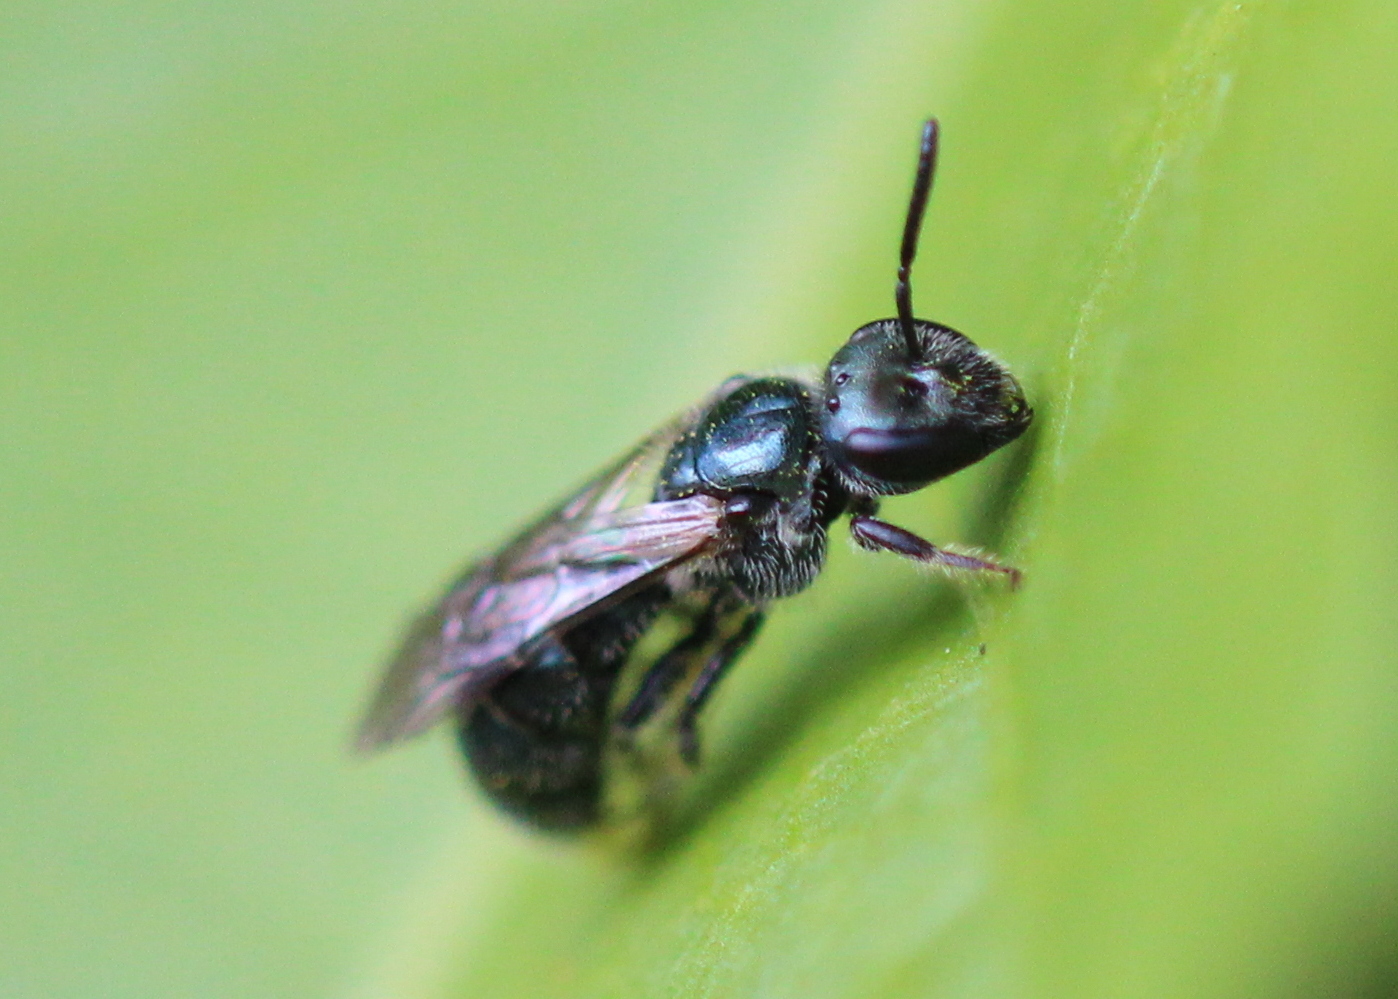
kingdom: Animalia
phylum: Arthropoda
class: Insecta
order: Hymenoptera
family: Halictidae
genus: Lasioglossum
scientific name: Lasioglossum coeruleum
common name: Deep-blue sweat bee
